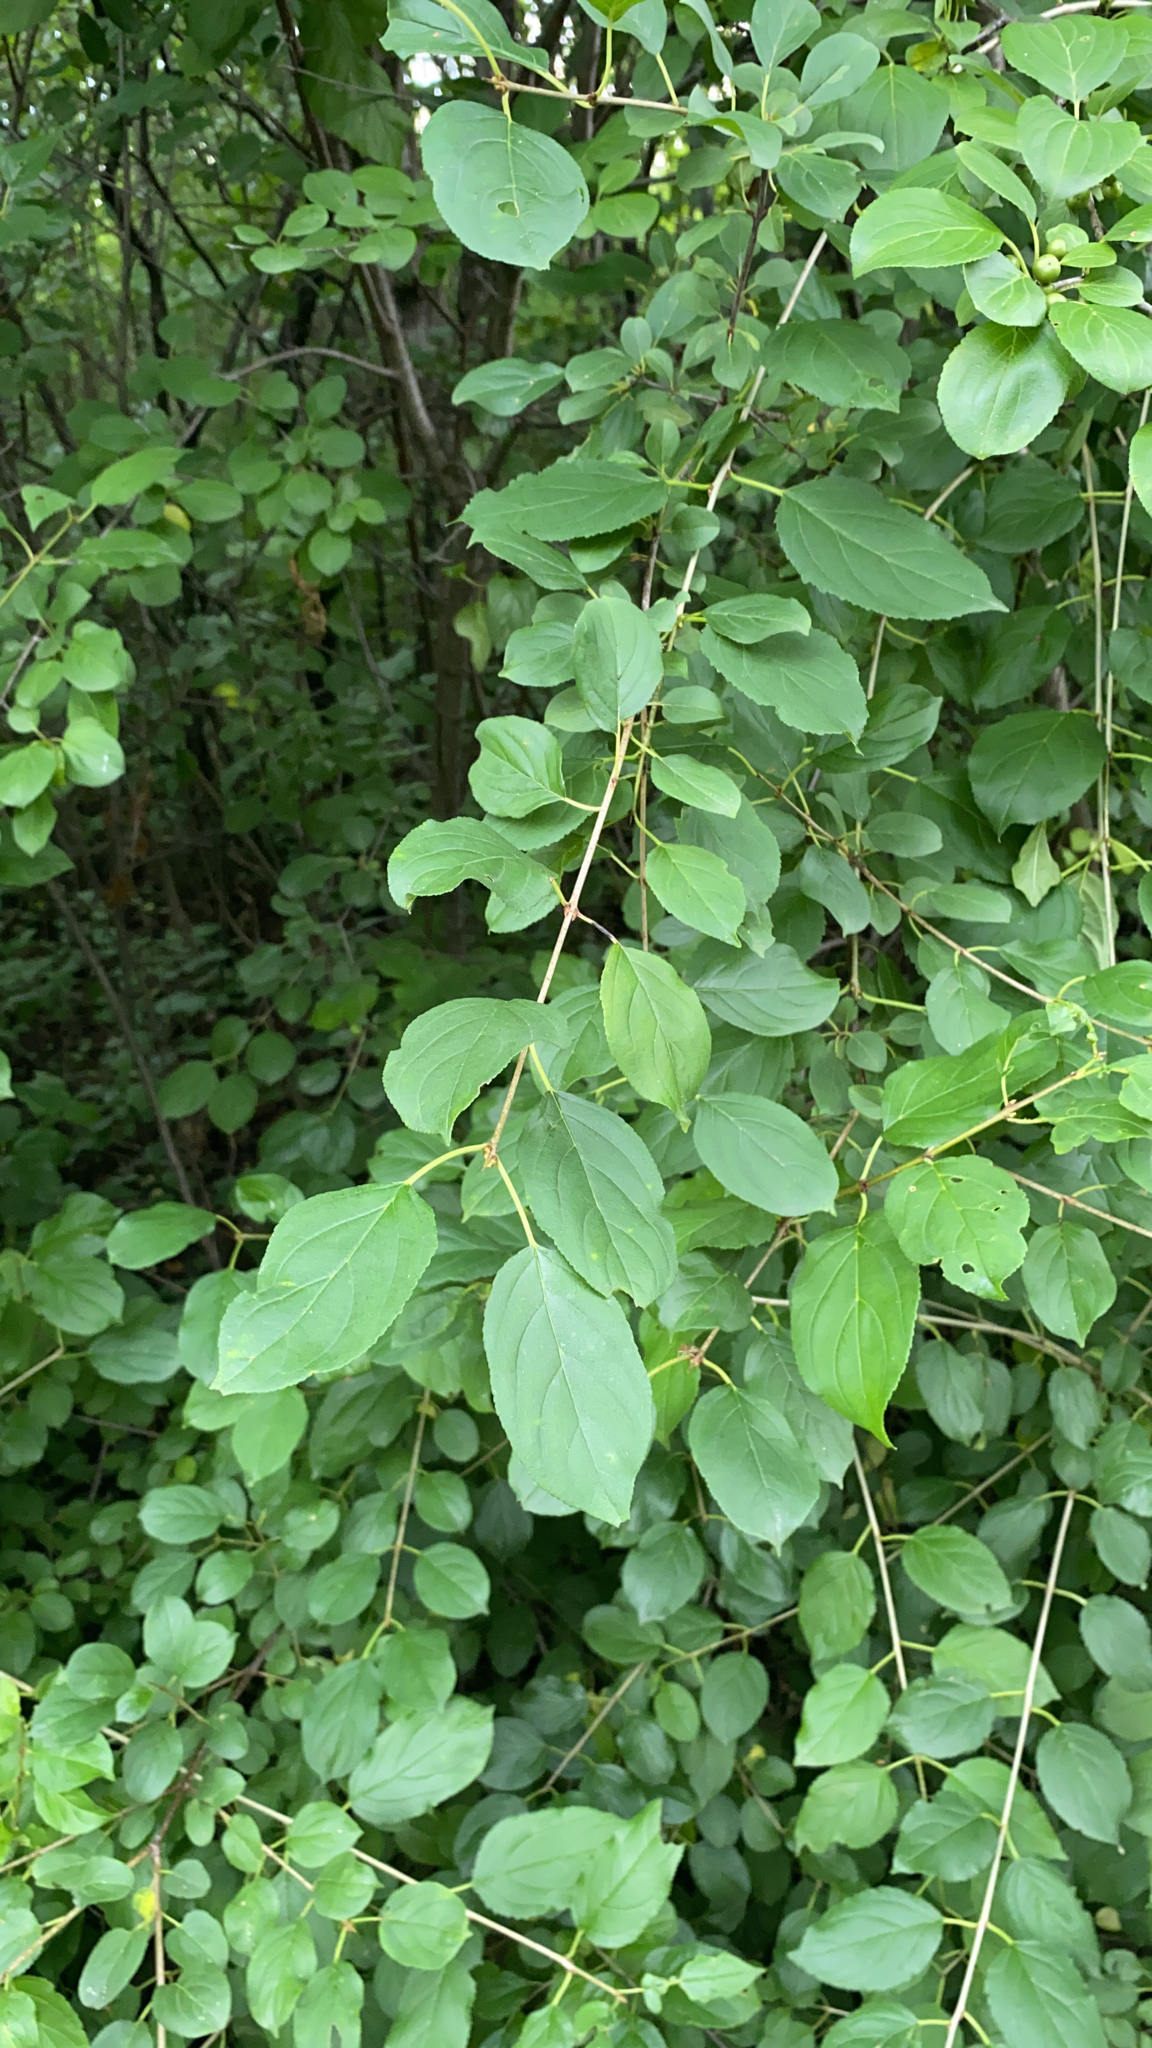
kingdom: Plantae
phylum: Tracheophyta
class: Magnoliopsida
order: Rosales
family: Rhamnaceae
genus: Rhamnus
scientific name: Rhamnus cathartica
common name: Common buckthorn
